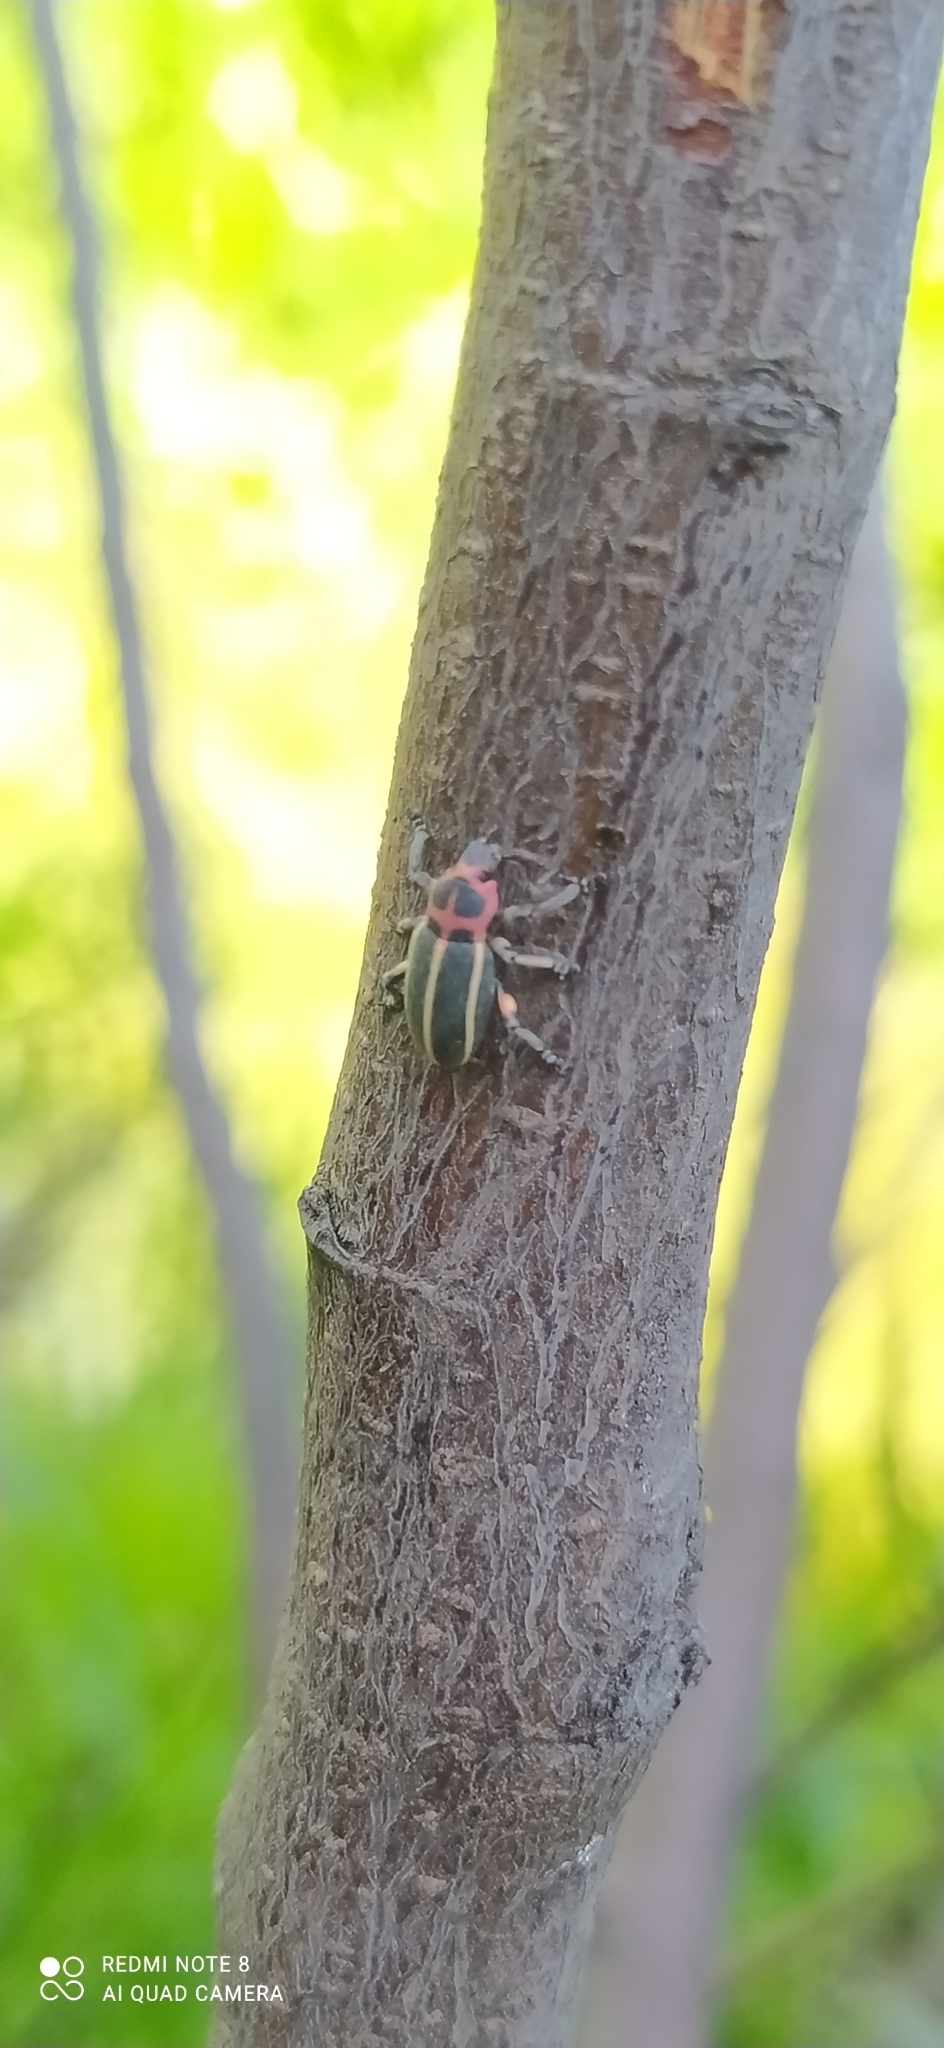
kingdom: Animalia
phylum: Arthropoda
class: Insecta
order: Coleoptera
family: Curculionidae
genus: Eudiagogus
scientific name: Eudiagogus episcopalis
